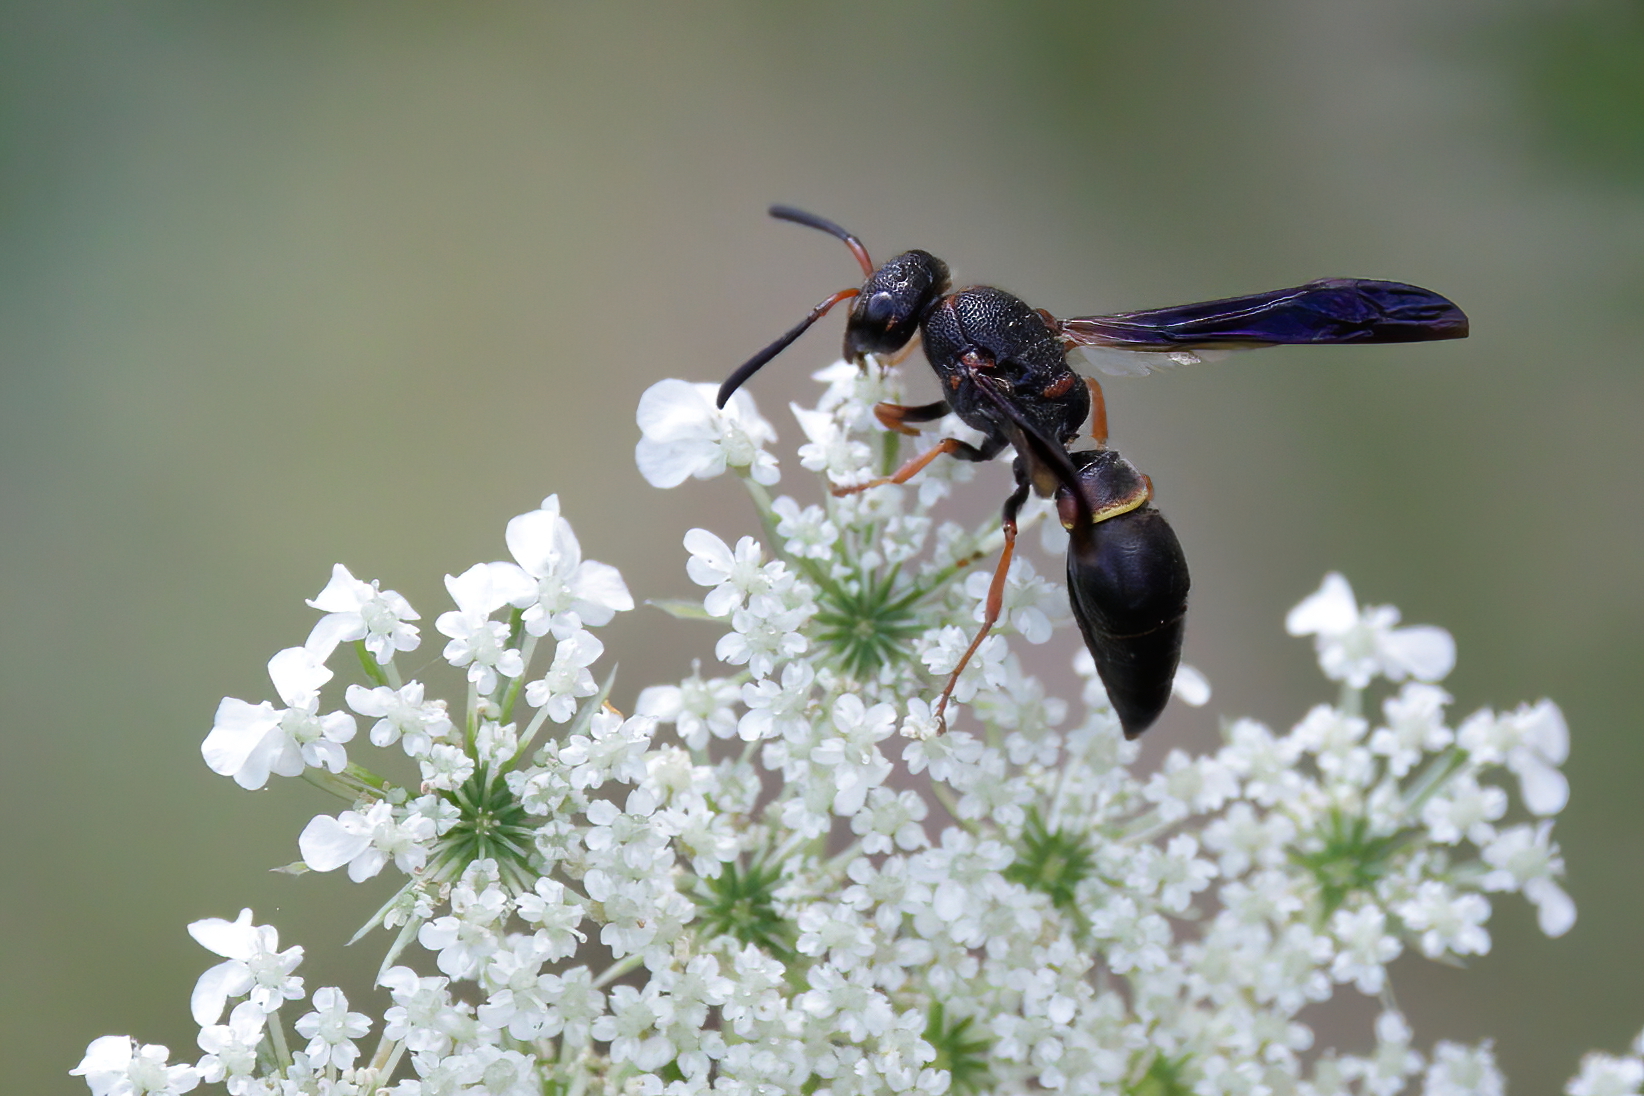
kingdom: Animalia
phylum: Arthropoda
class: Insecta
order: Hymenoptera
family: Vespidae
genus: Ancistrocerus
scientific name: Ancistrocerus unifasciatus
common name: One-banded mason wasp
